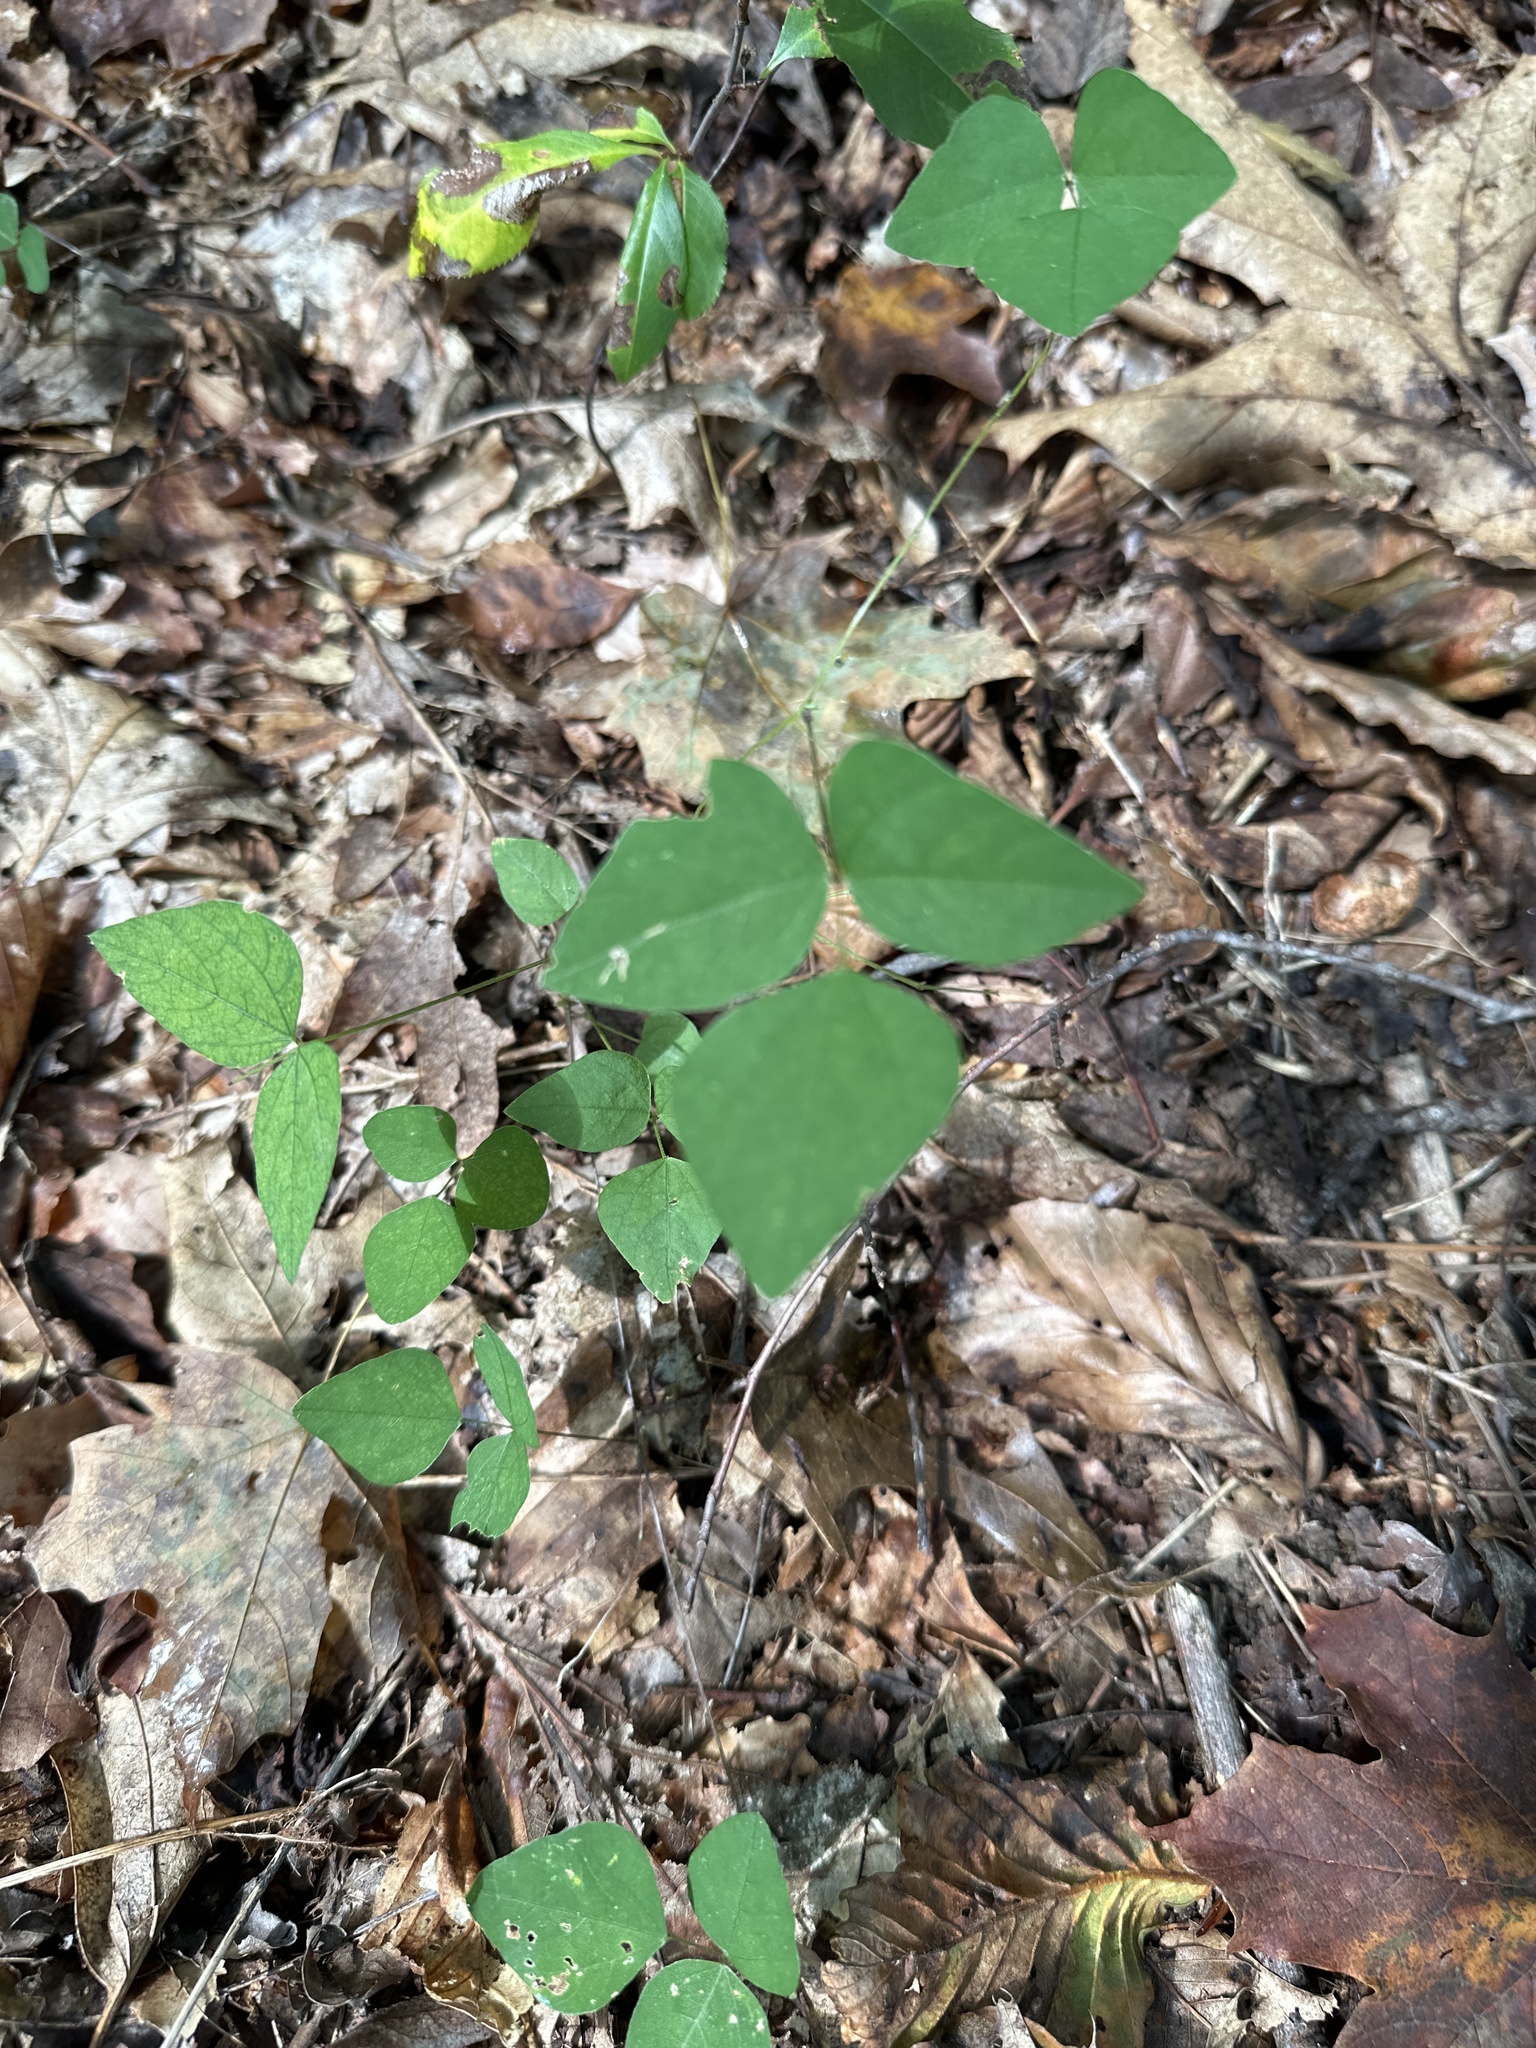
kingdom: Plantae
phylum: Tracheophyta
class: Magnoliopsida
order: Fabales
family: Fabaceae
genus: Amphicarpaea
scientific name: Amphicarpaea bracteata
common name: American hog peanut
